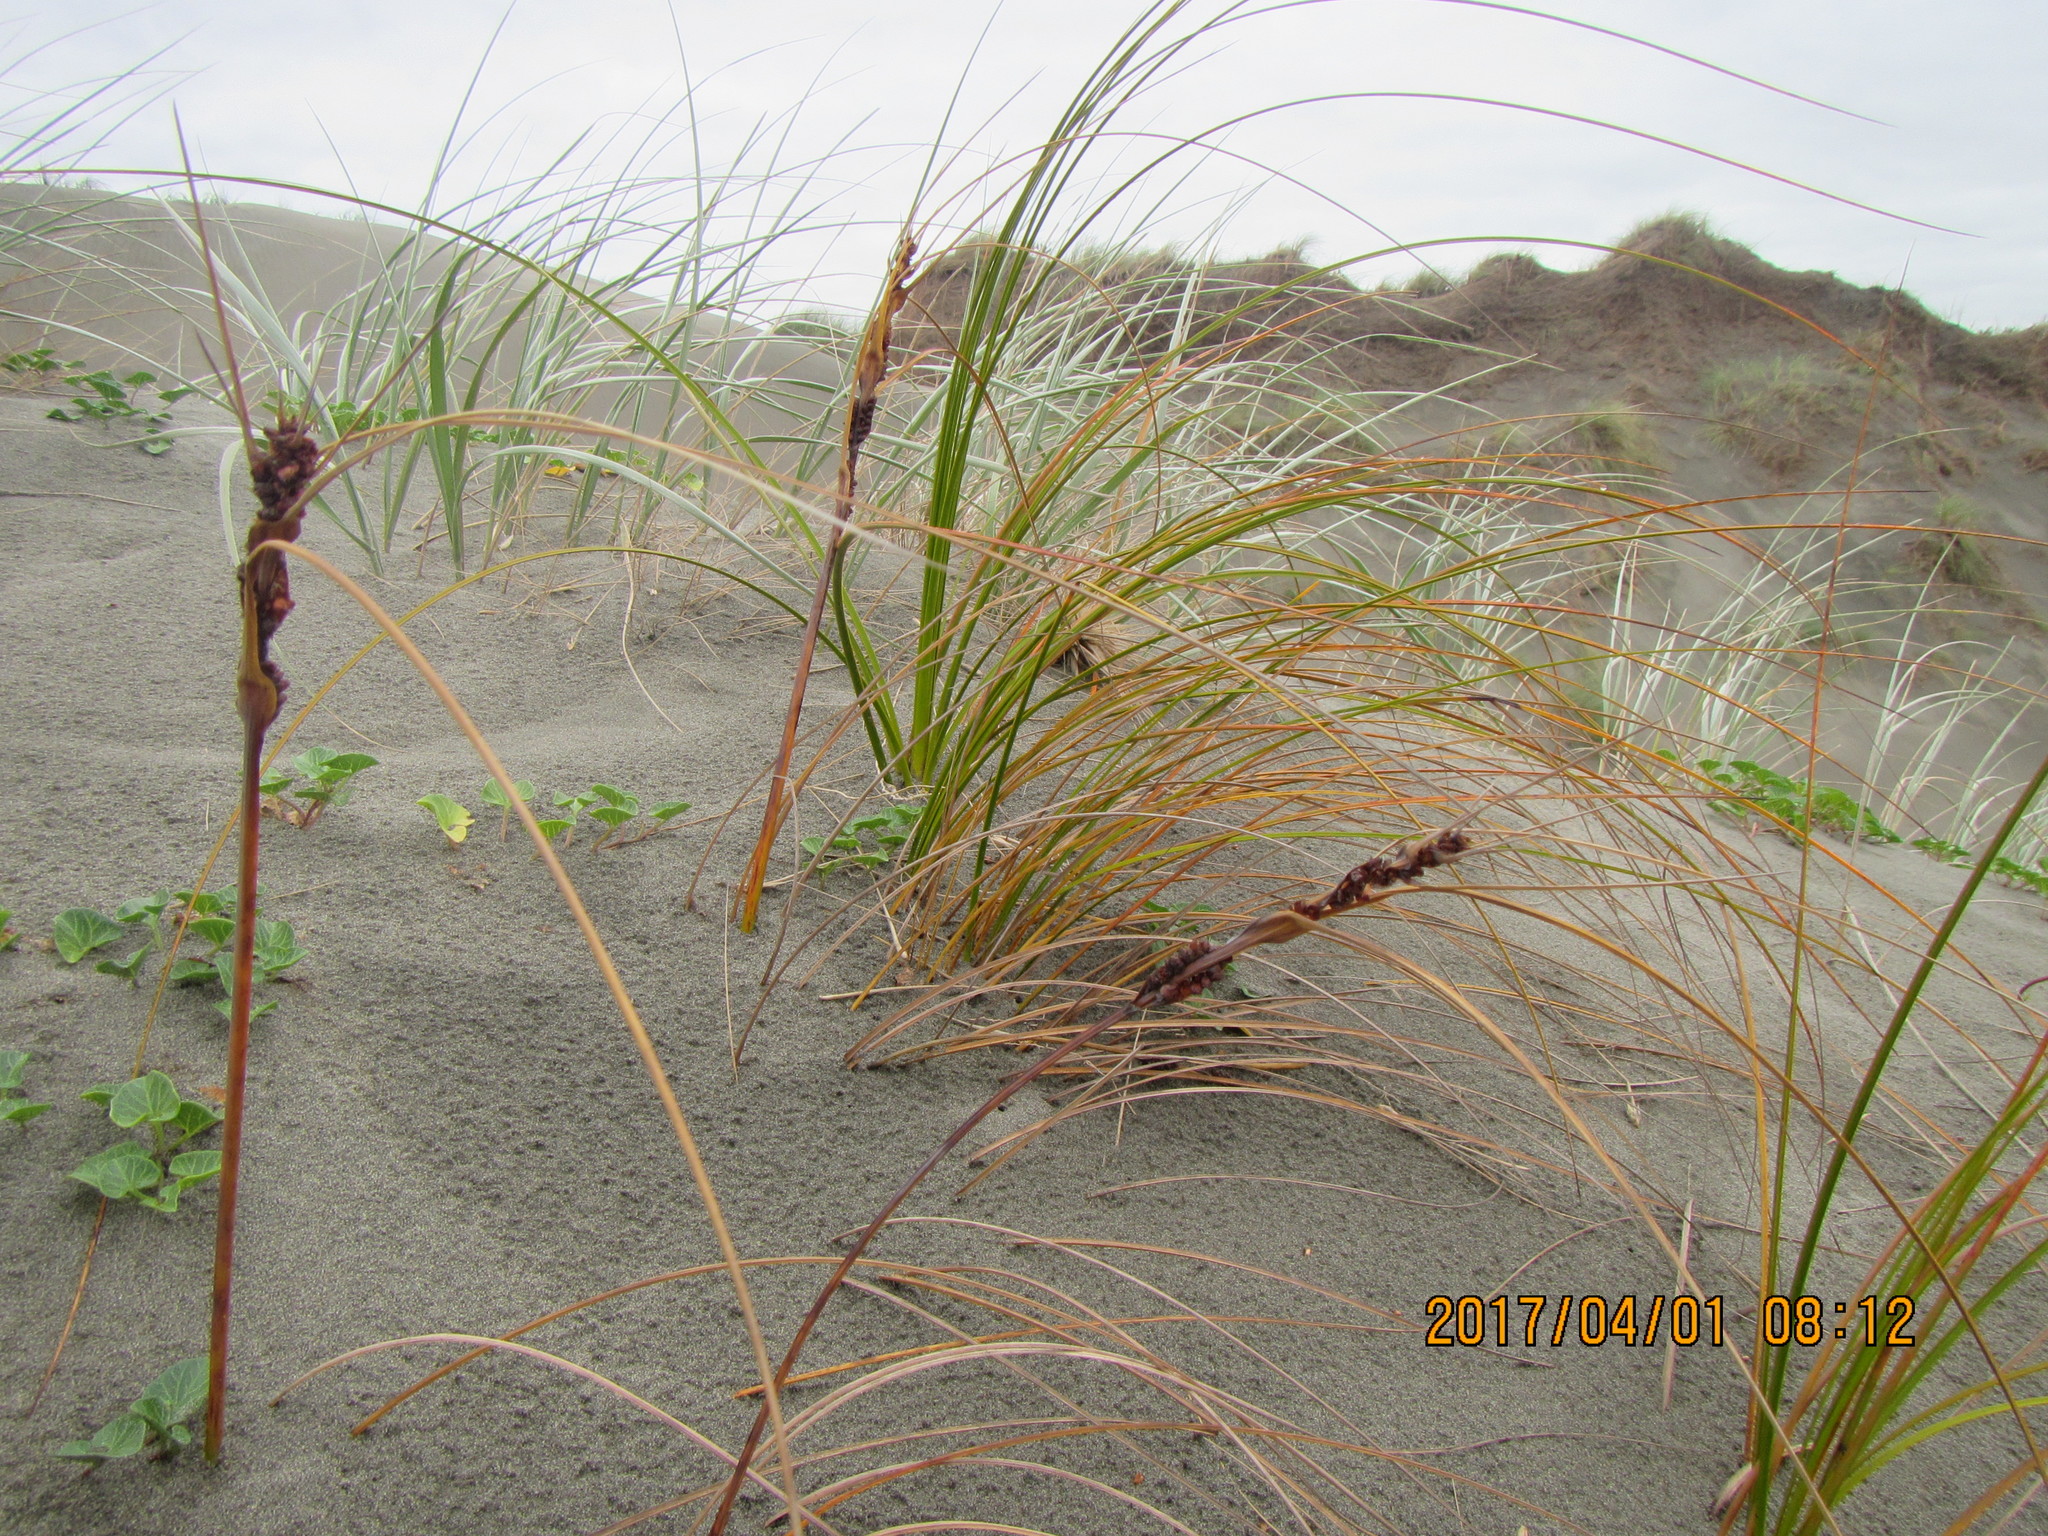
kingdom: Plantae
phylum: Tracheophyta
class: Liliopsida
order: Poales
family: Cyperaceae
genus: Ficinia
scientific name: Ficinia spiralis
